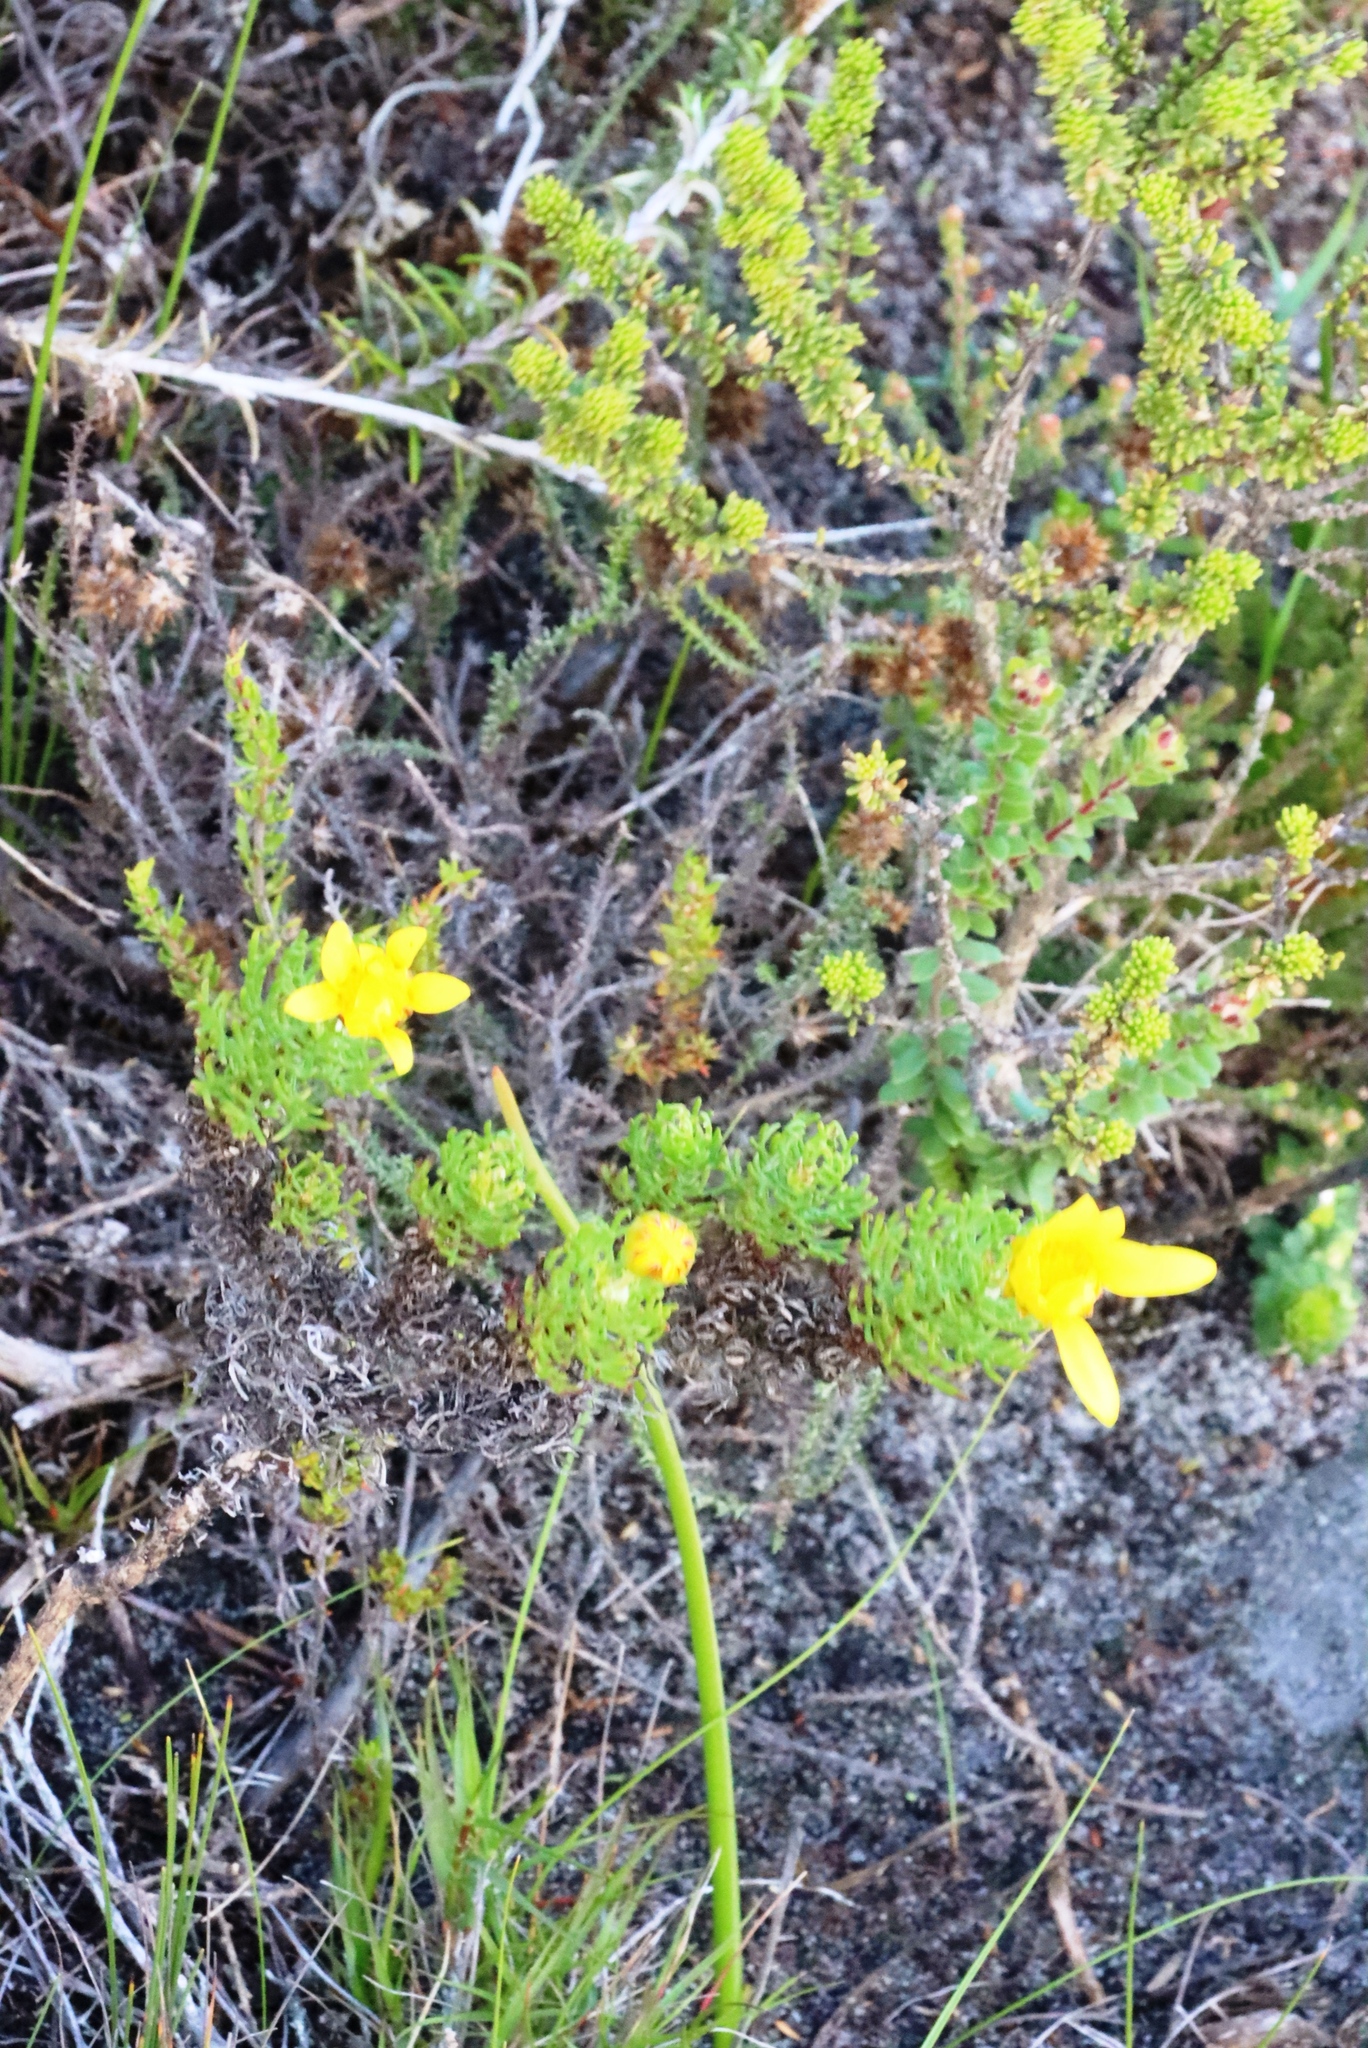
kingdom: Plantae
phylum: Tracheophyta
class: Magnoliopsida
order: Asterales
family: Asteraceae
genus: Euryops
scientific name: Euryops abrotanifolius
